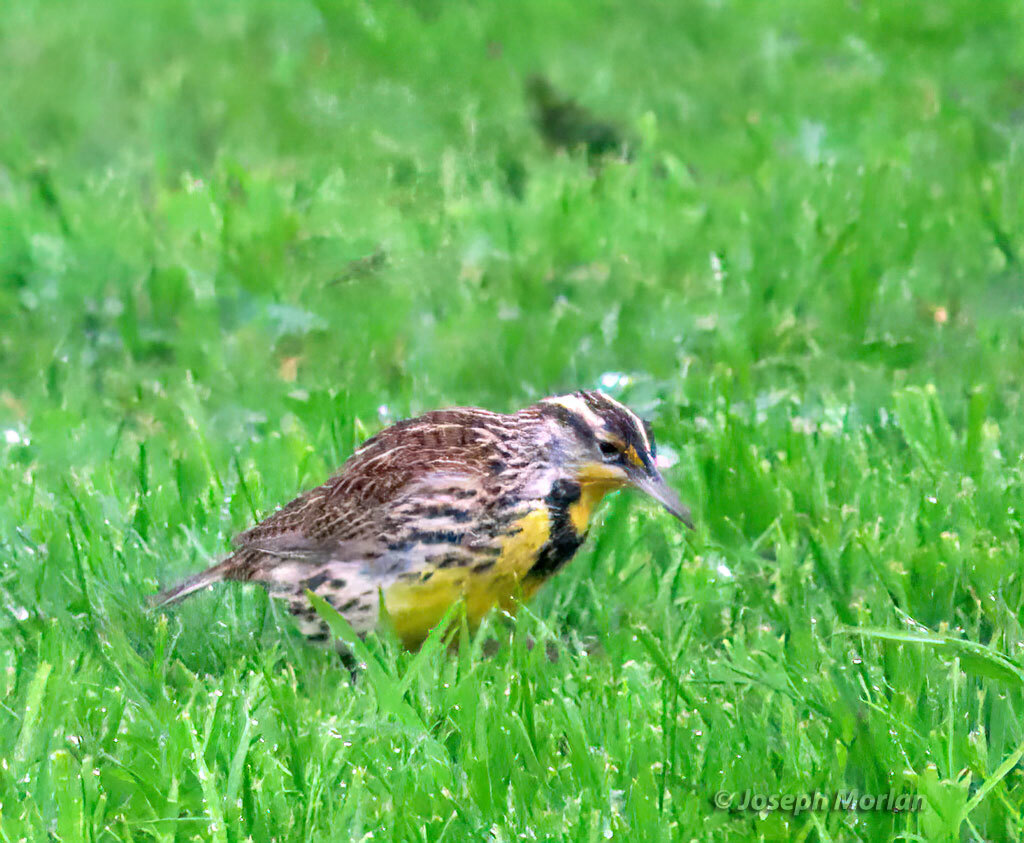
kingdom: Animalia
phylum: Chordata
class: Aves
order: Passeriformes
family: Icteridae
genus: Sturnella
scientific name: Sturnella neglecta
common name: Western meadowlark
